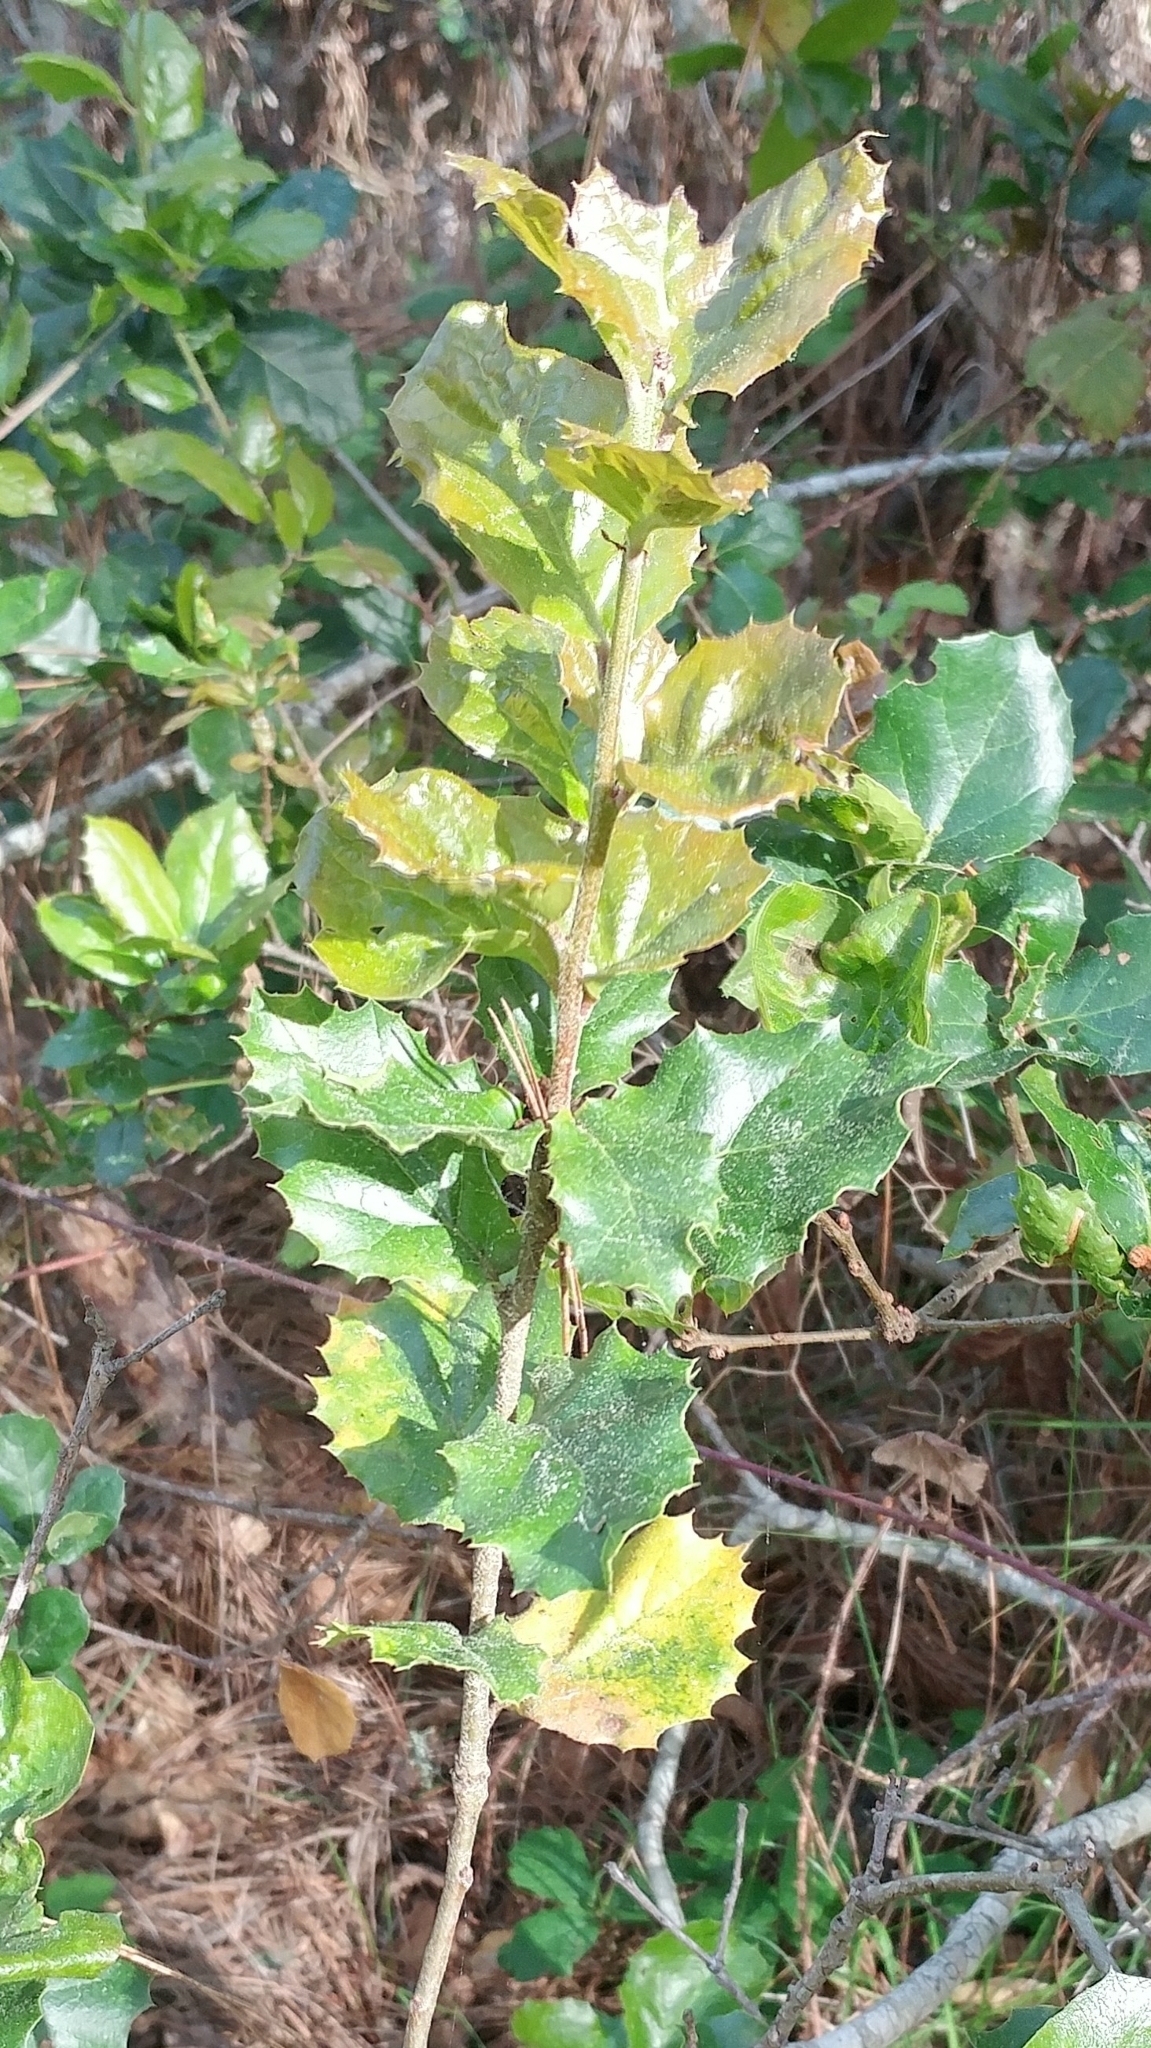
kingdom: Plantae
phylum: Tracheophyta
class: Magnoliopsida
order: Fagales
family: Fagaceae
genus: Quercus
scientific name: Quercus agrifolia
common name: California live oak
